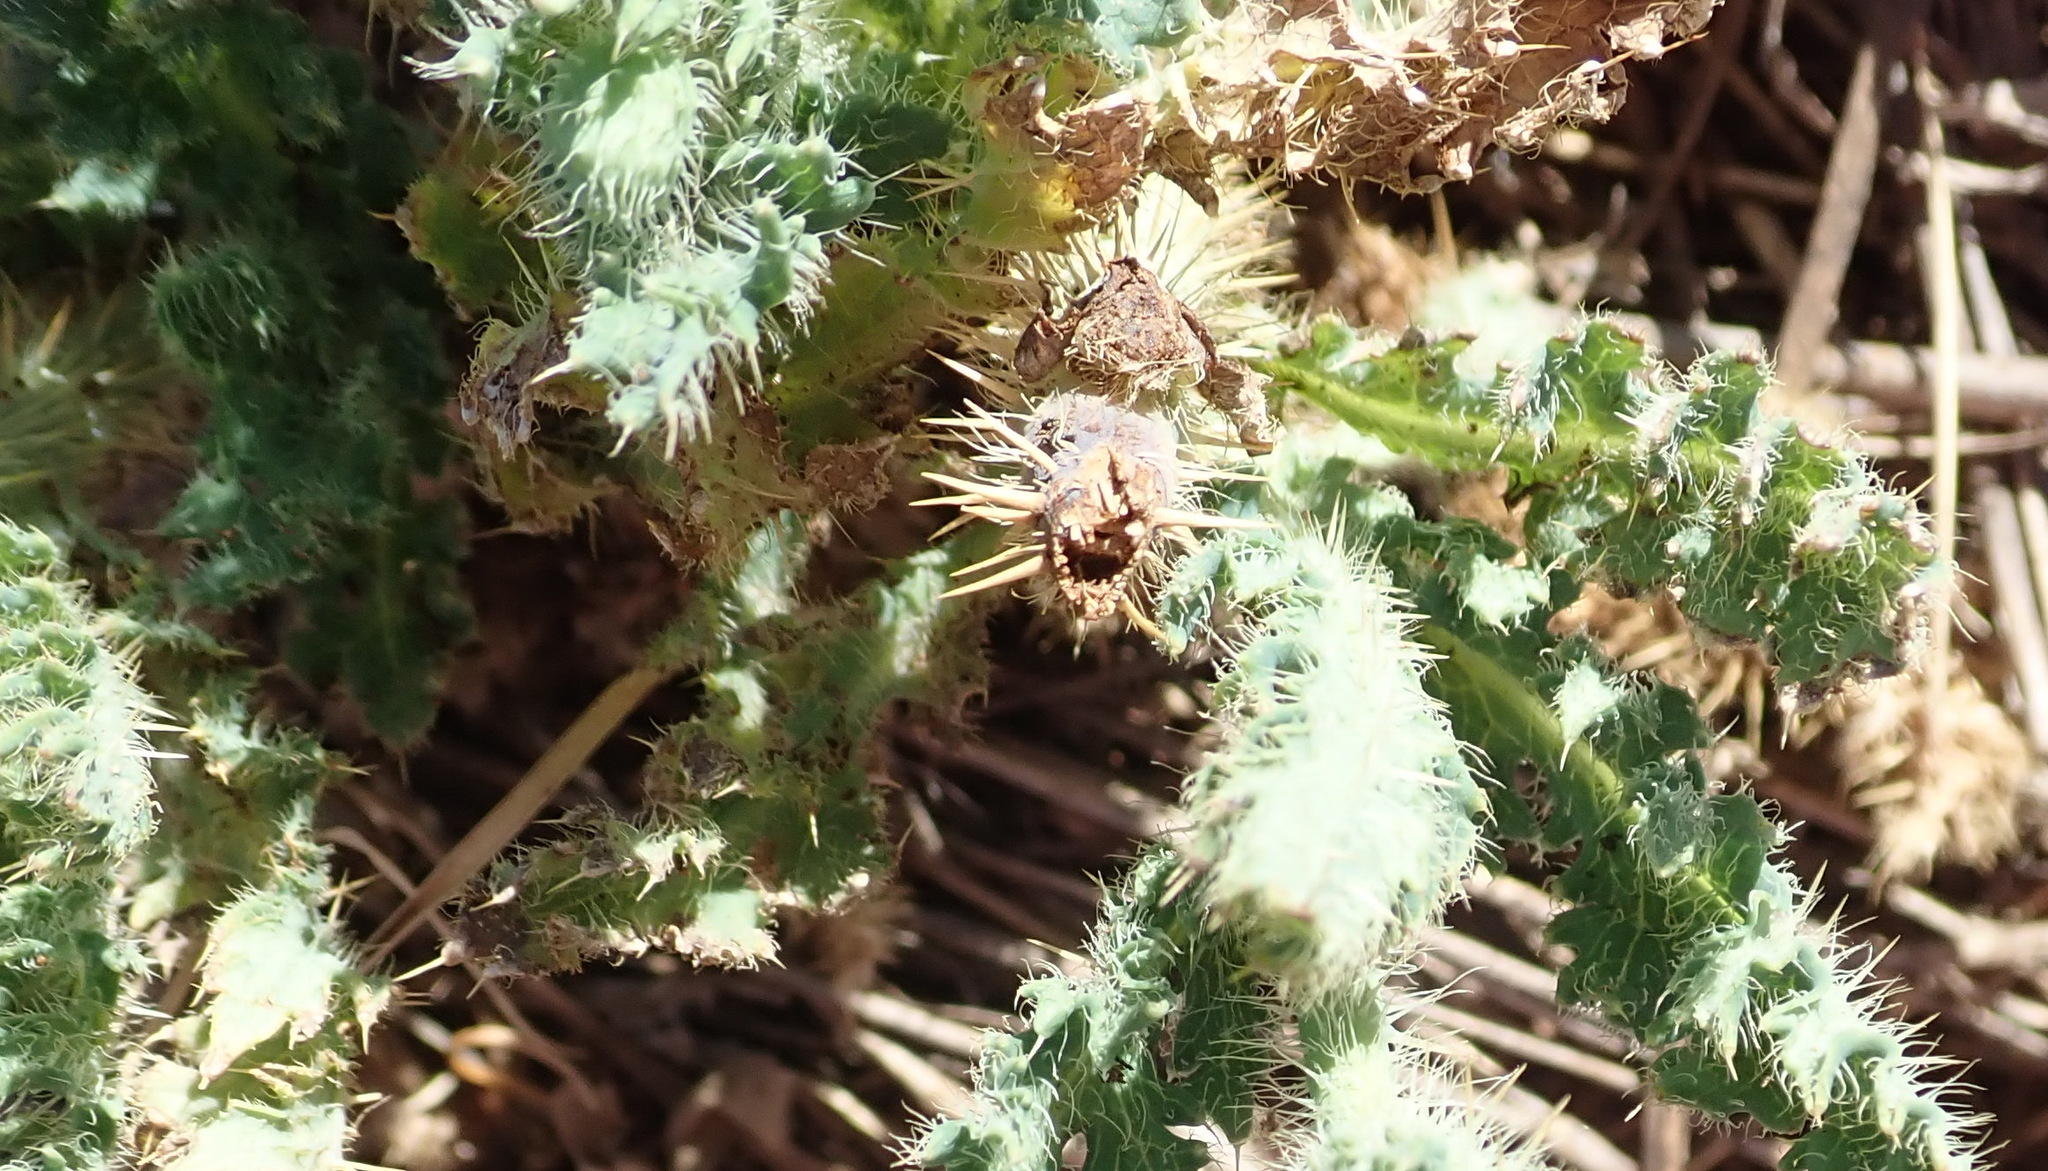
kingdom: Plantae
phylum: Tracheophyta
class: Magnoliopsida
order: Ranunculales
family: Papaveraceae
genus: Papaver
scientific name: Papaver aculeatum
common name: Bristle poppy
